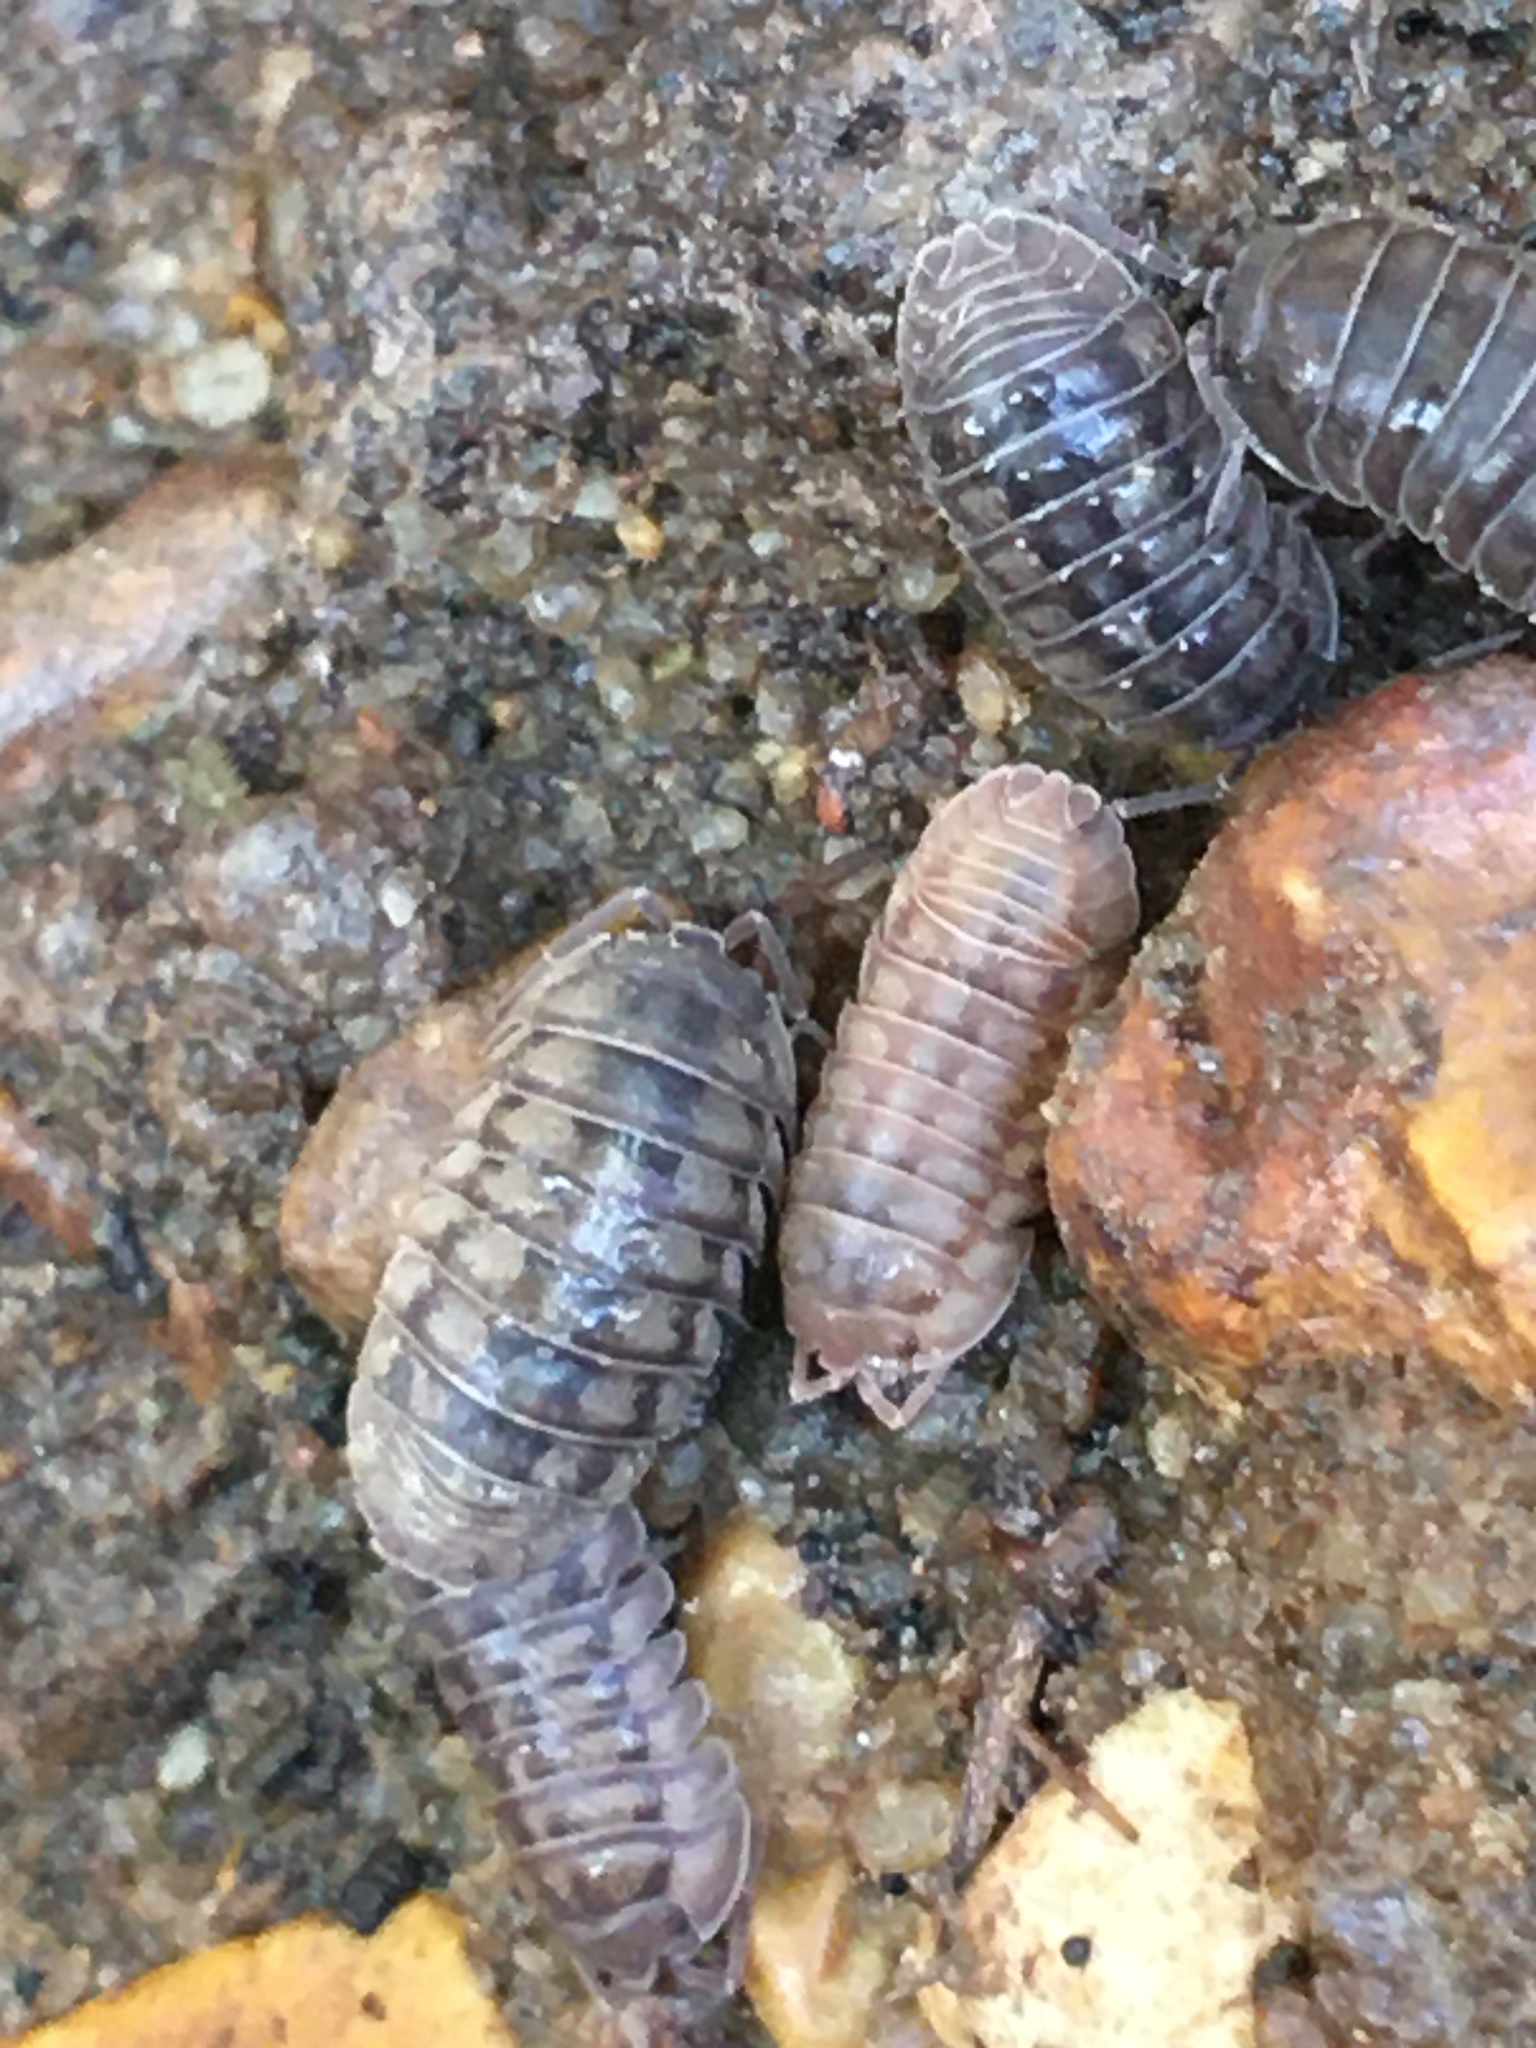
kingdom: Animalia
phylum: Arthropoda
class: Malacostraca
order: Isopoda
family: Armadillidiidae
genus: Armadillidium
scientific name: Armadillidium nasatum
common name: Isopod
